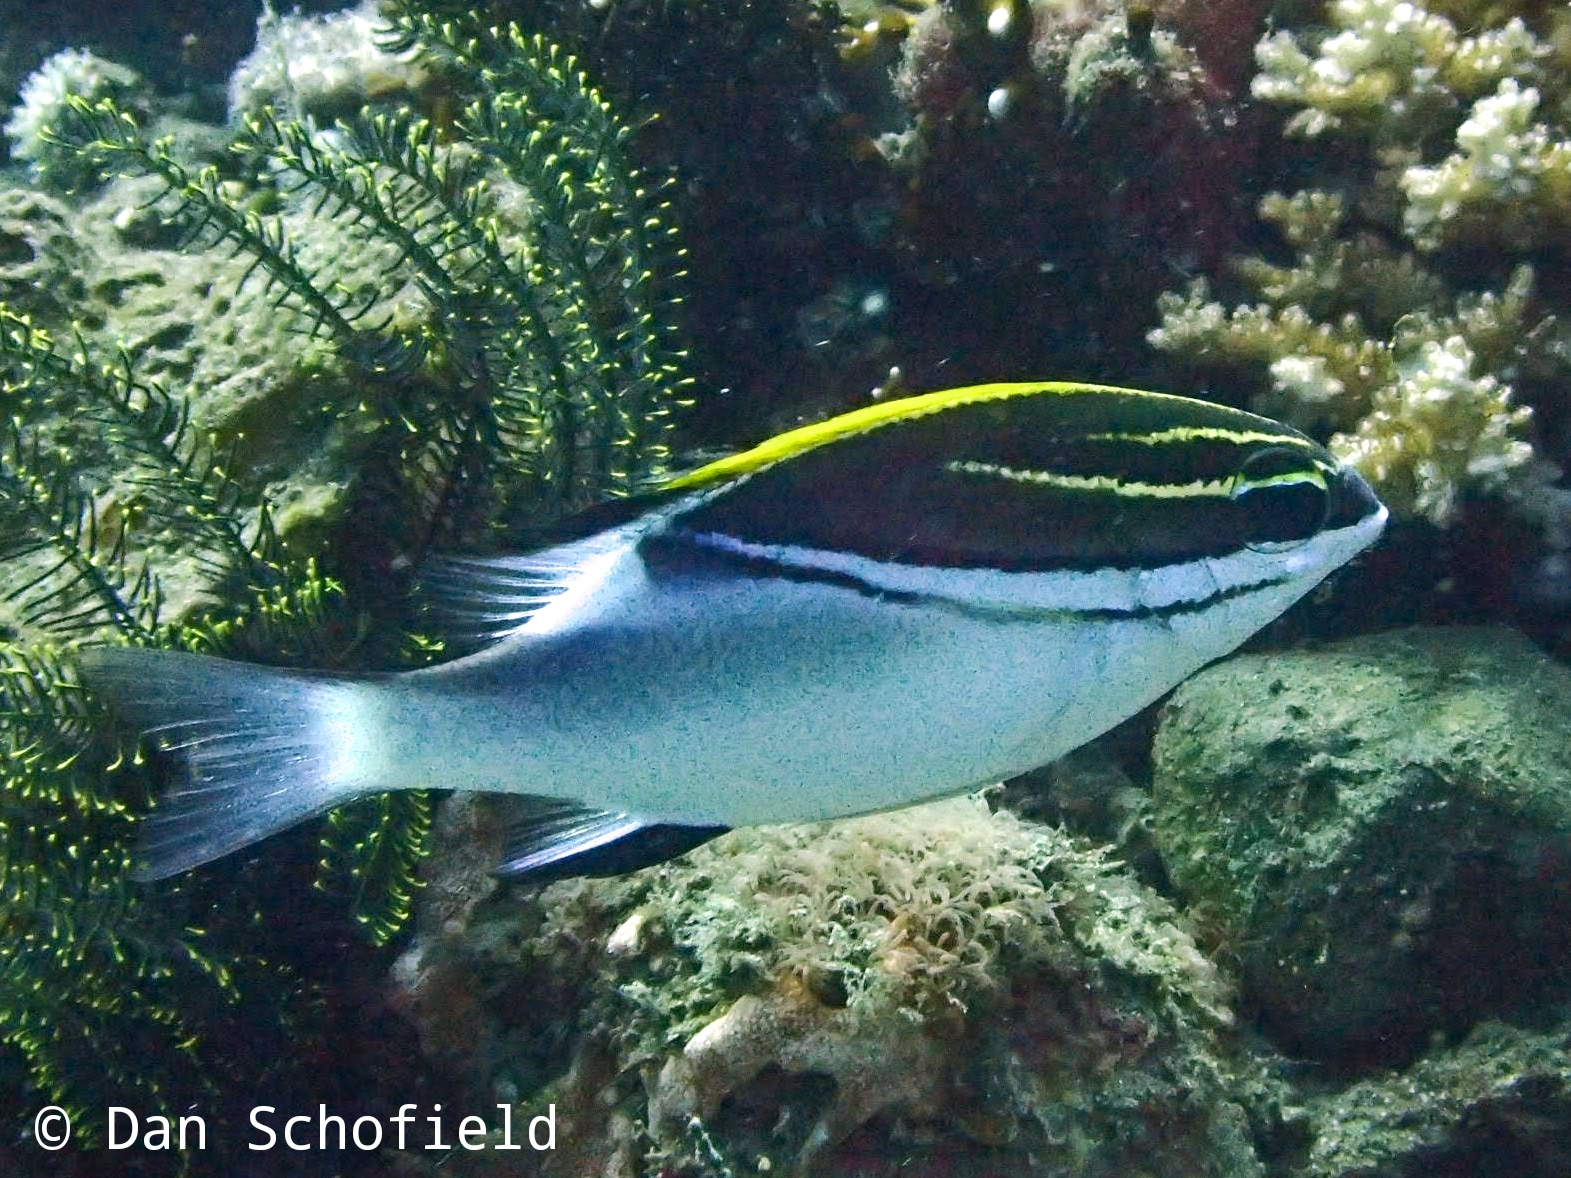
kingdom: Animalia
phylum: Chordata
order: Perciformes
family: Nemipteridae
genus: Scolopsis
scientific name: Scolopsis bilineata
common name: Two-lined monocle bream
